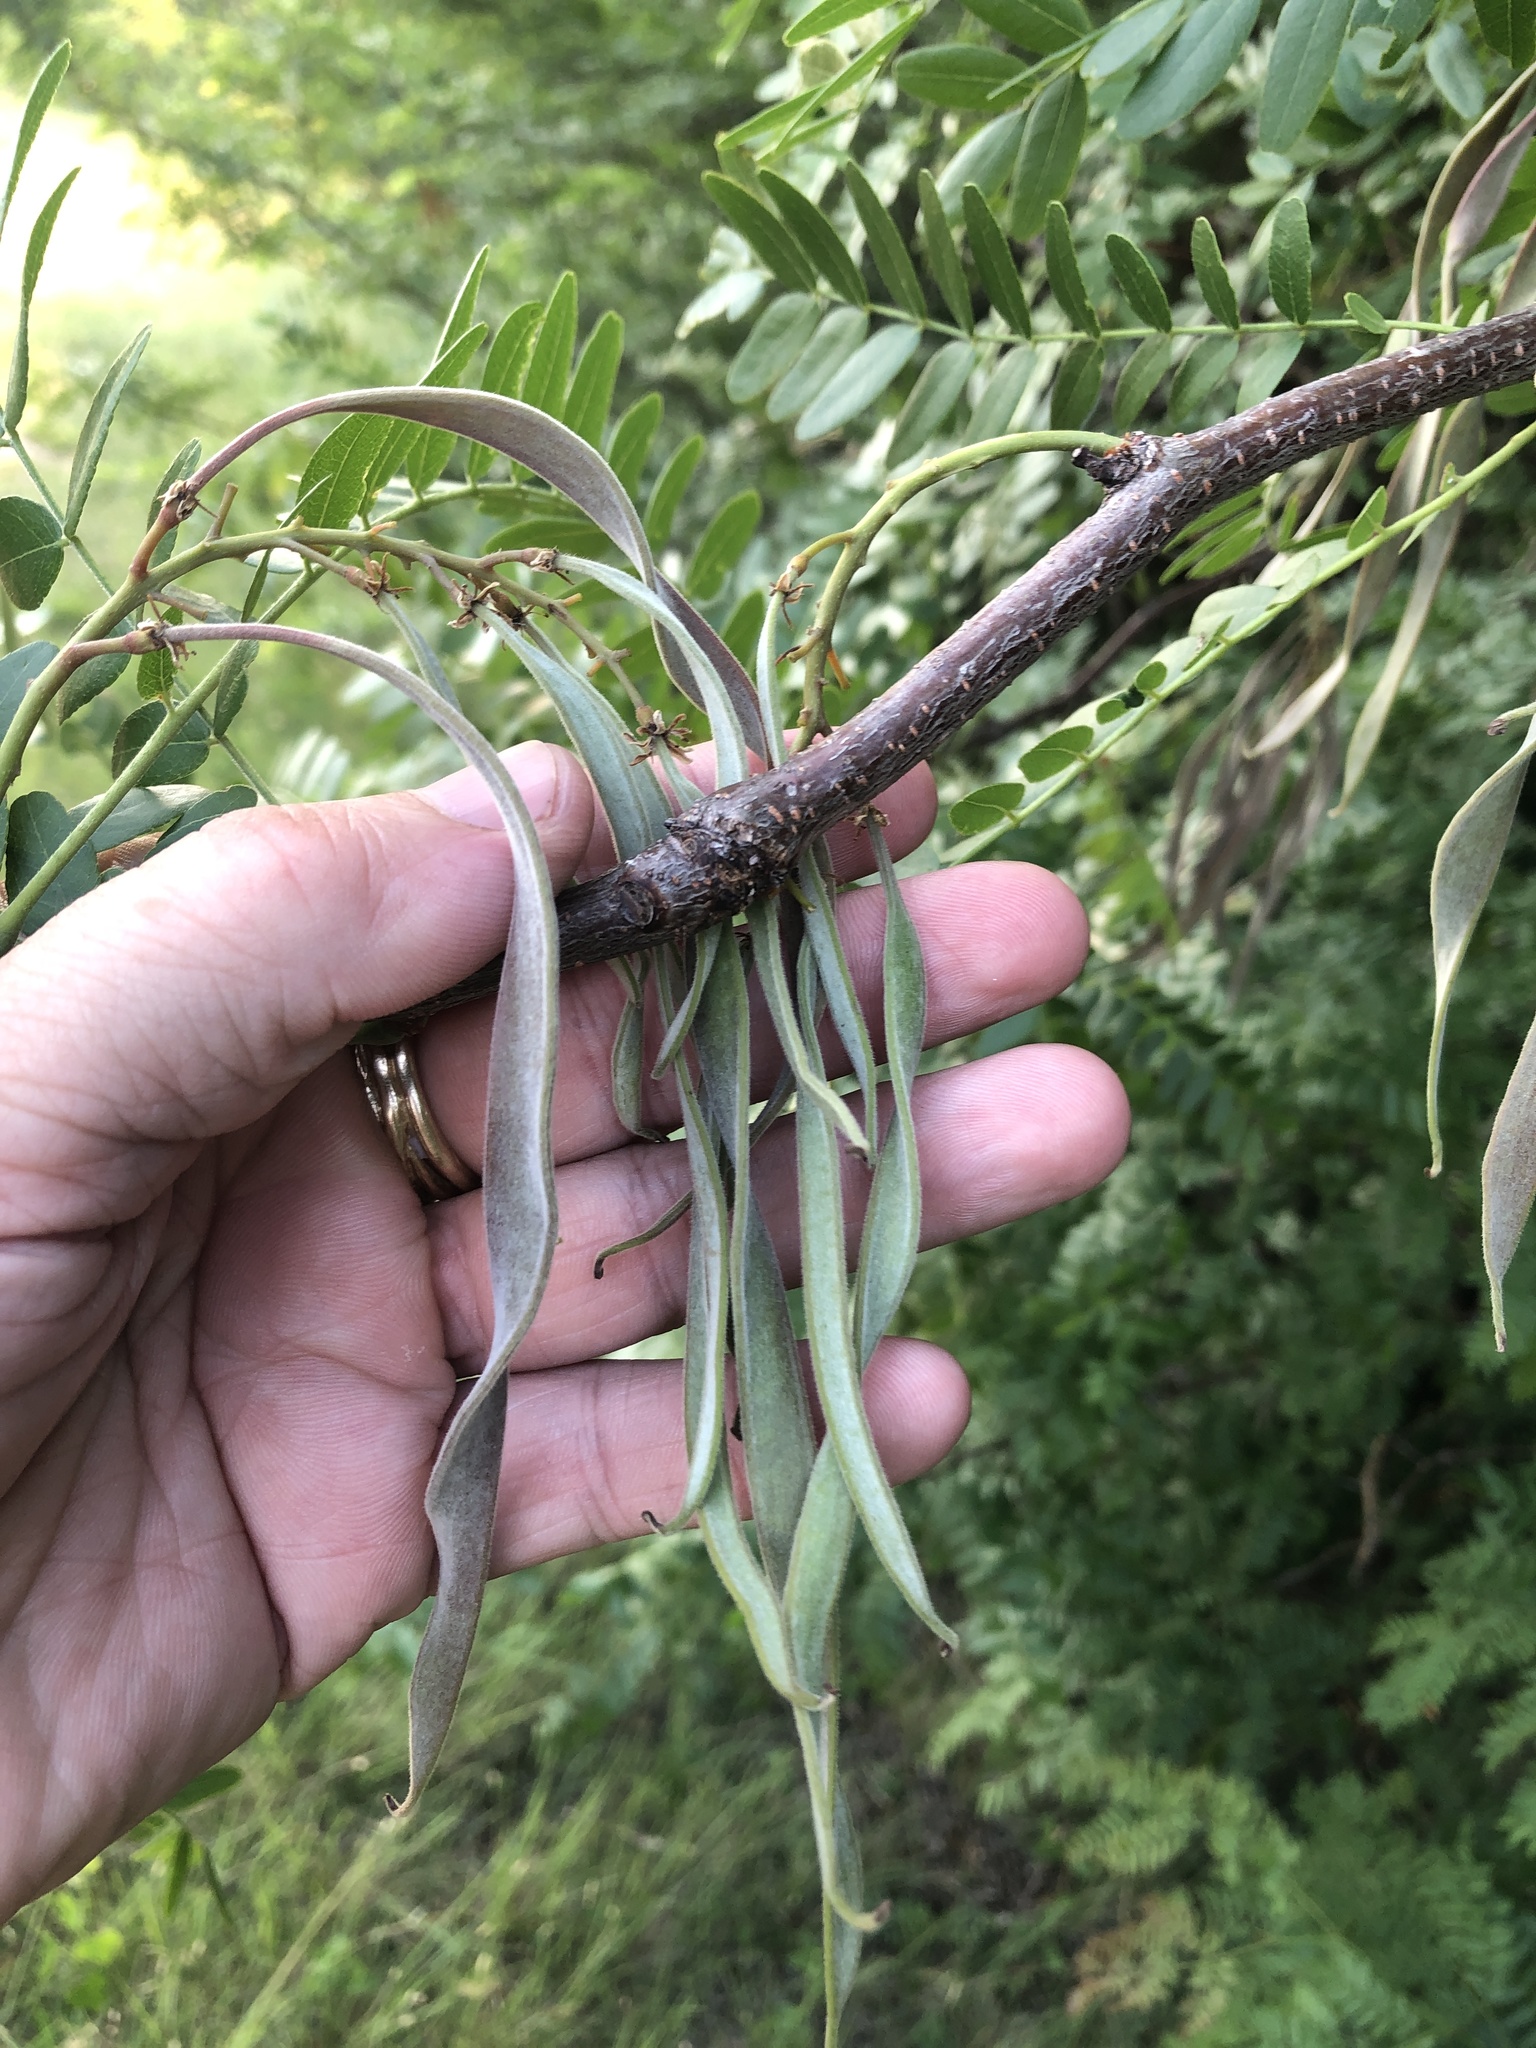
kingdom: Plantae
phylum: Tracheophyta
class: Magnoliopsida
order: Fabales
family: Fabaceae
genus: Gleditsia
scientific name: Gleditsia triacanthos
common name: Common honeylocust
